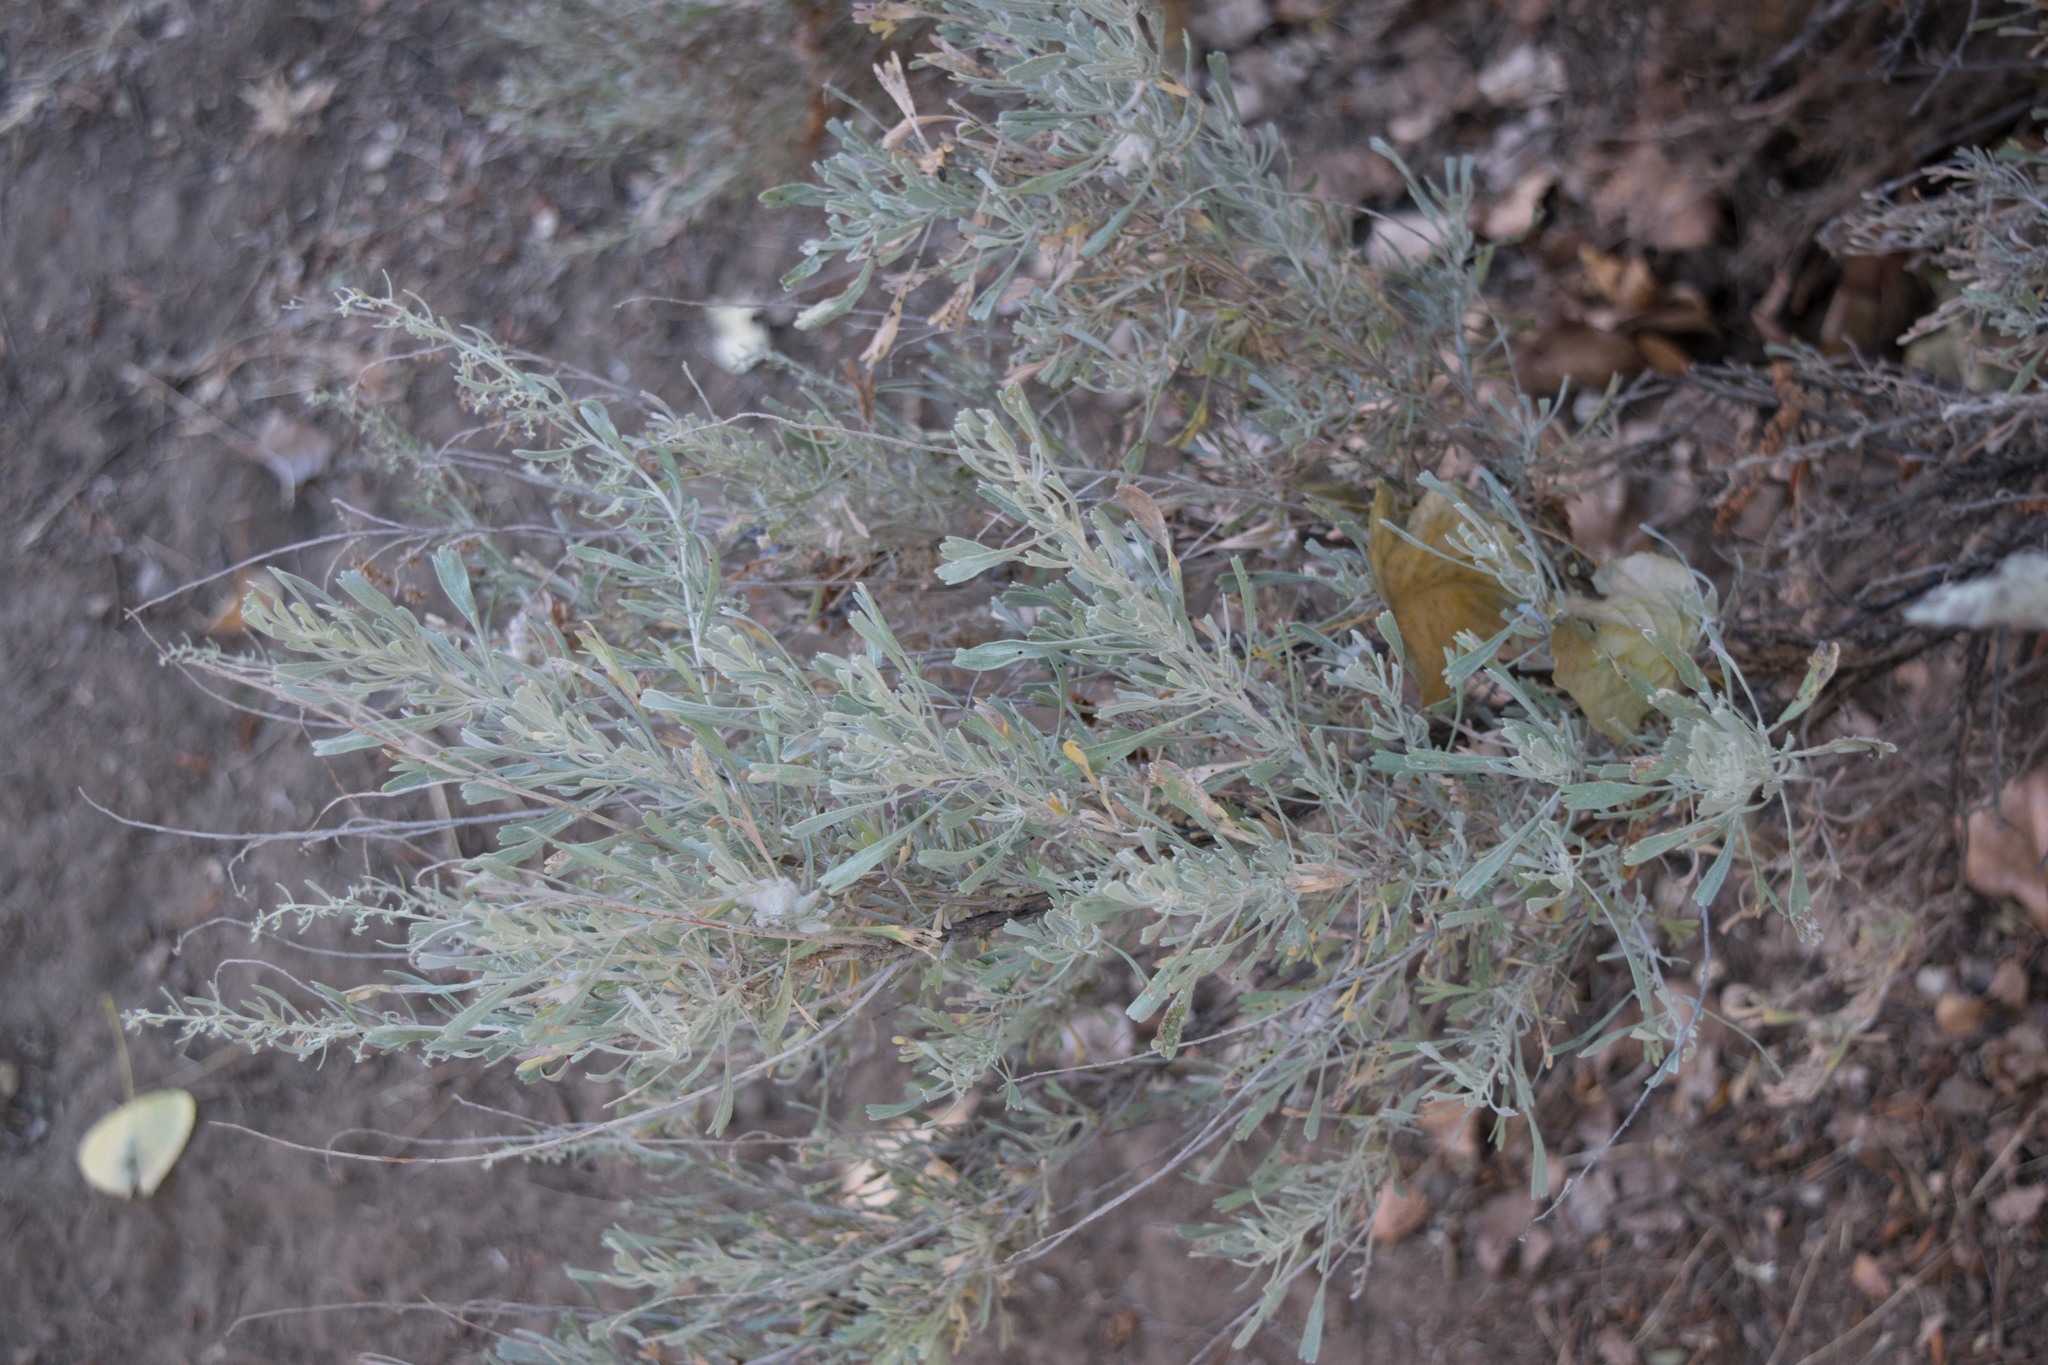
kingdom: Plantae
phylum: Tracheophyta
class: Magnoliopsida
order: Asterales
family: Asteraceae
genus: Artemisia
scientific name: Artemisia tridentata
